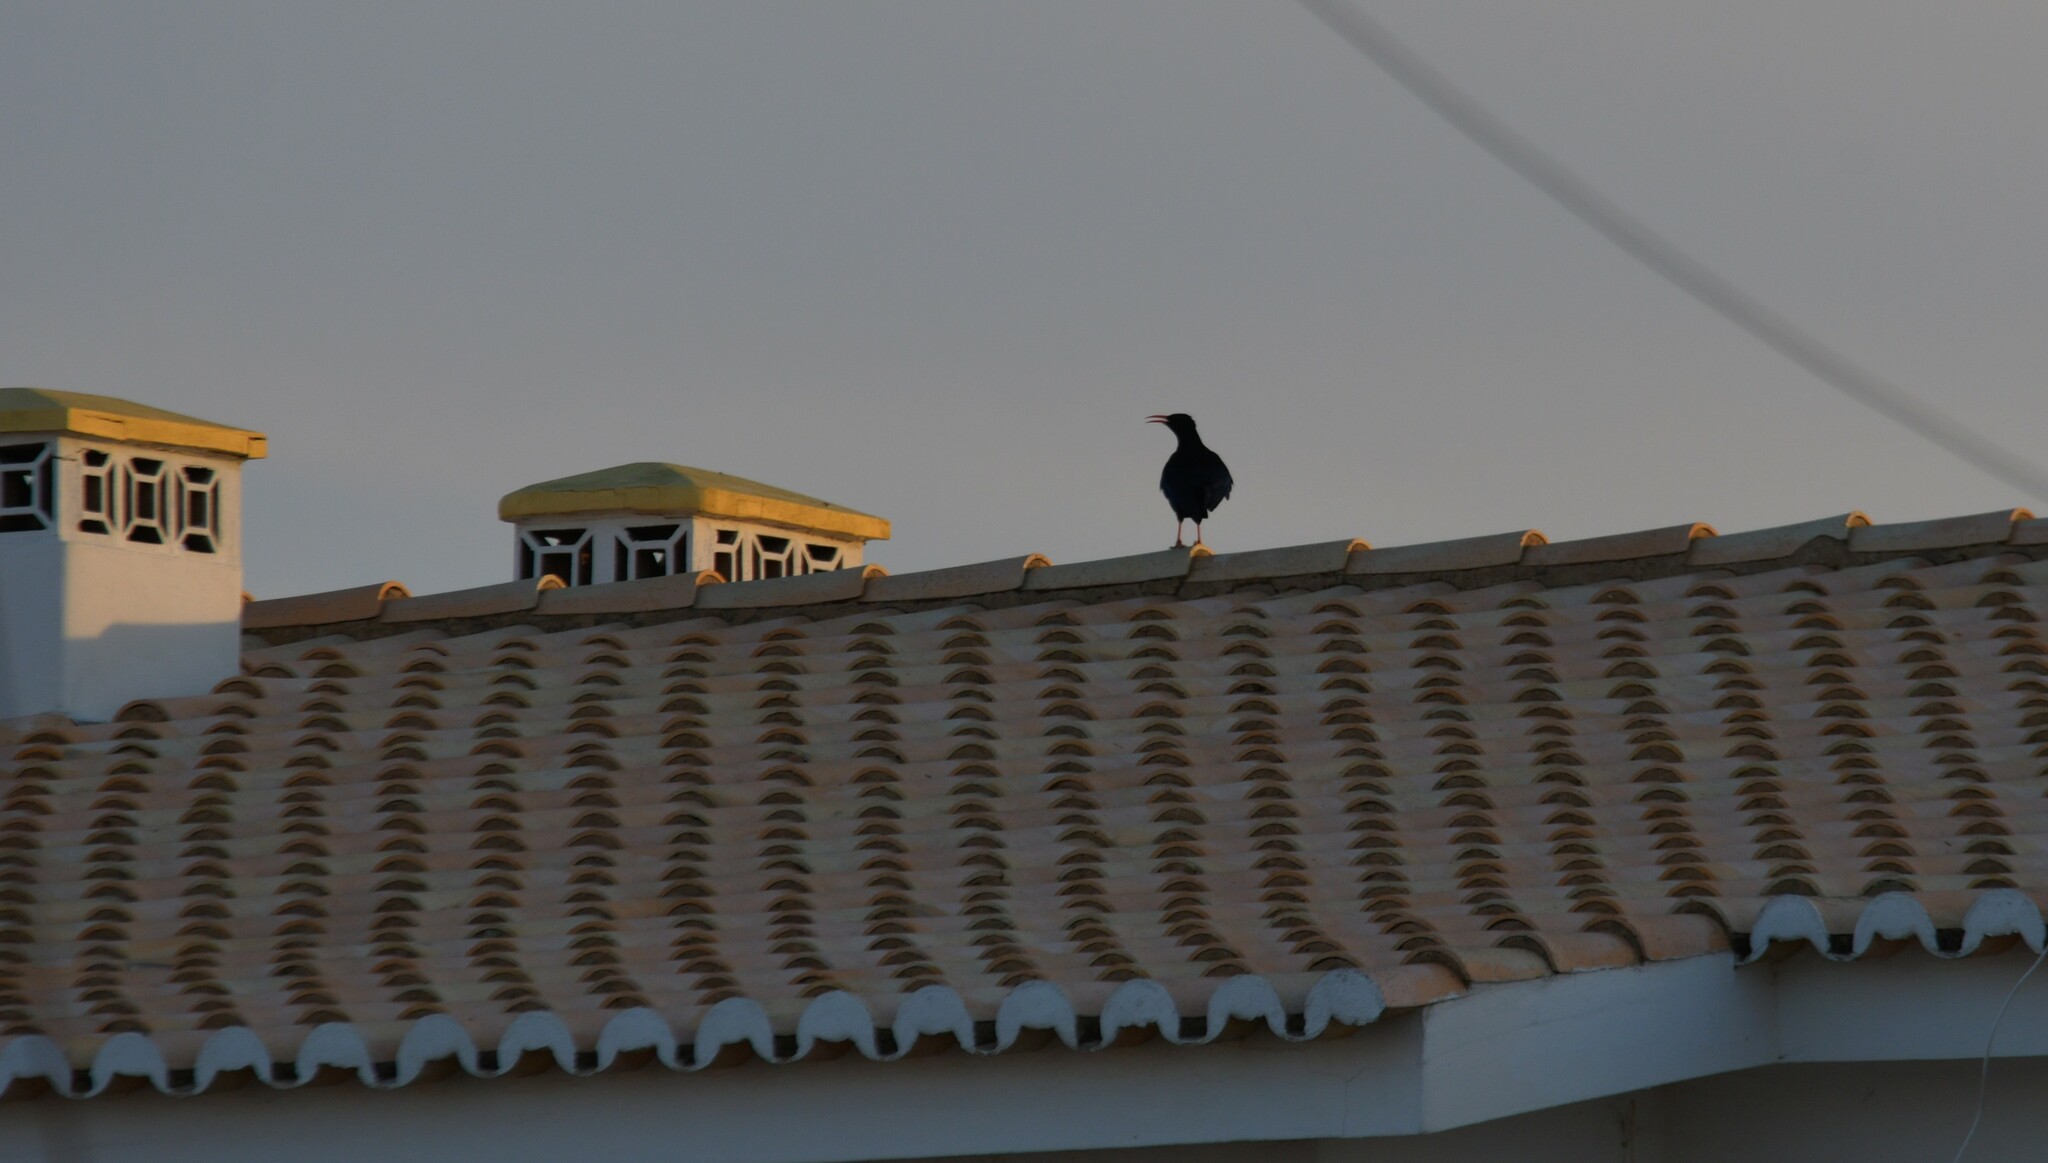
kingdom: Animalia
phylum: Chordata
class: Aves
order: Passeriformes
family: Corvidae
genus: Pyrrhocorax
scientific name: Pyrrhocorax pyrrhocorax
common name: Red-billed chough
